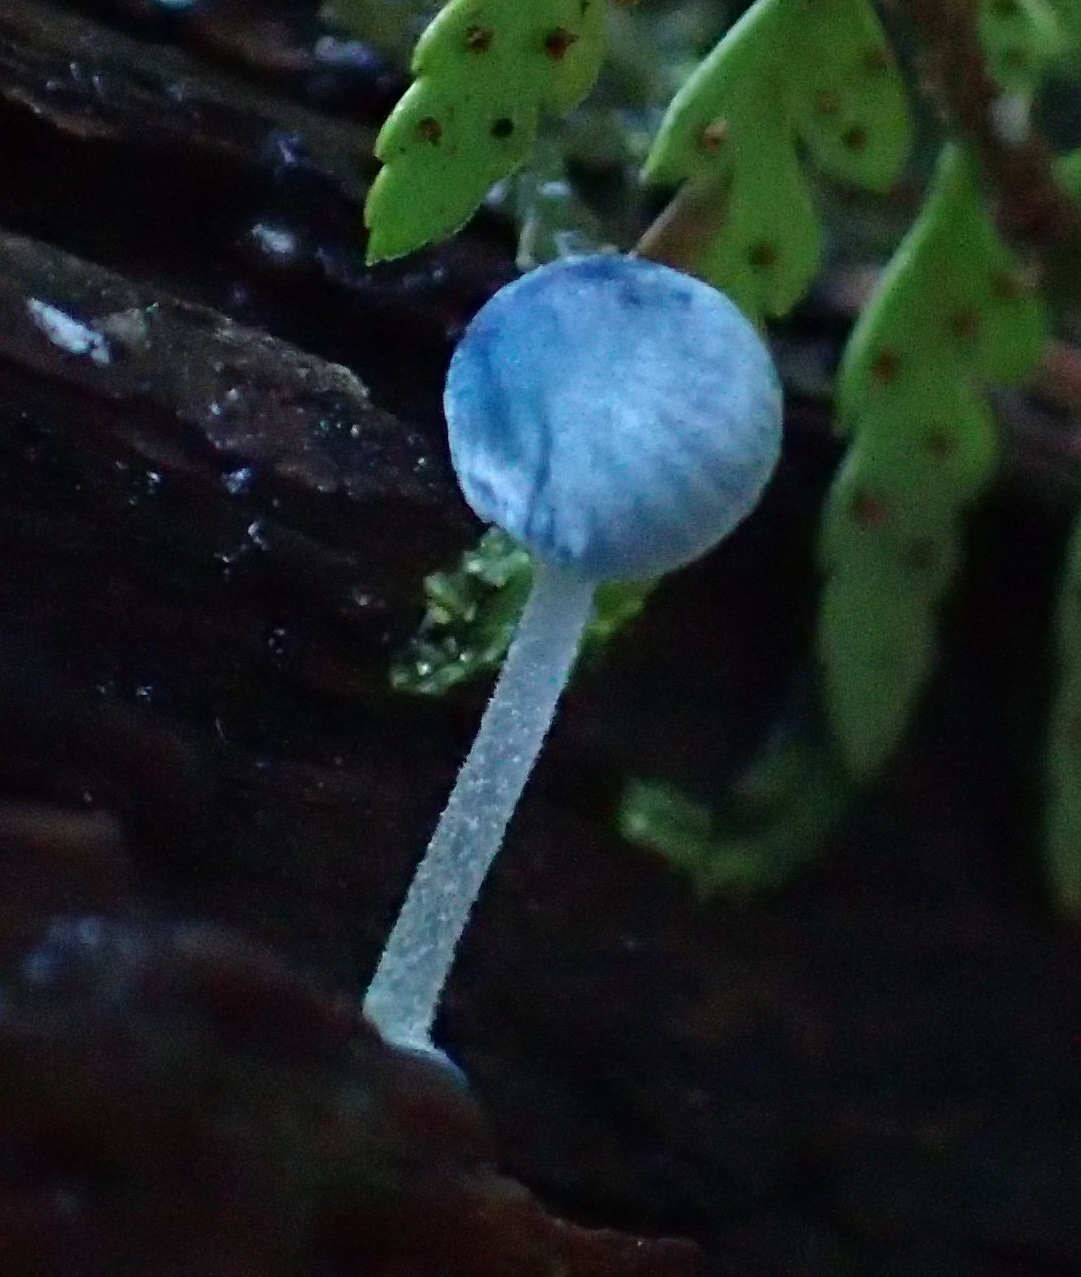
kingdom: Fungi
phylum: Basidiomycota
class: Agaricomycetes
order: Agaricales
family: Mycenaceae
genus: Mycena
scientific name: Mycena interrupta
